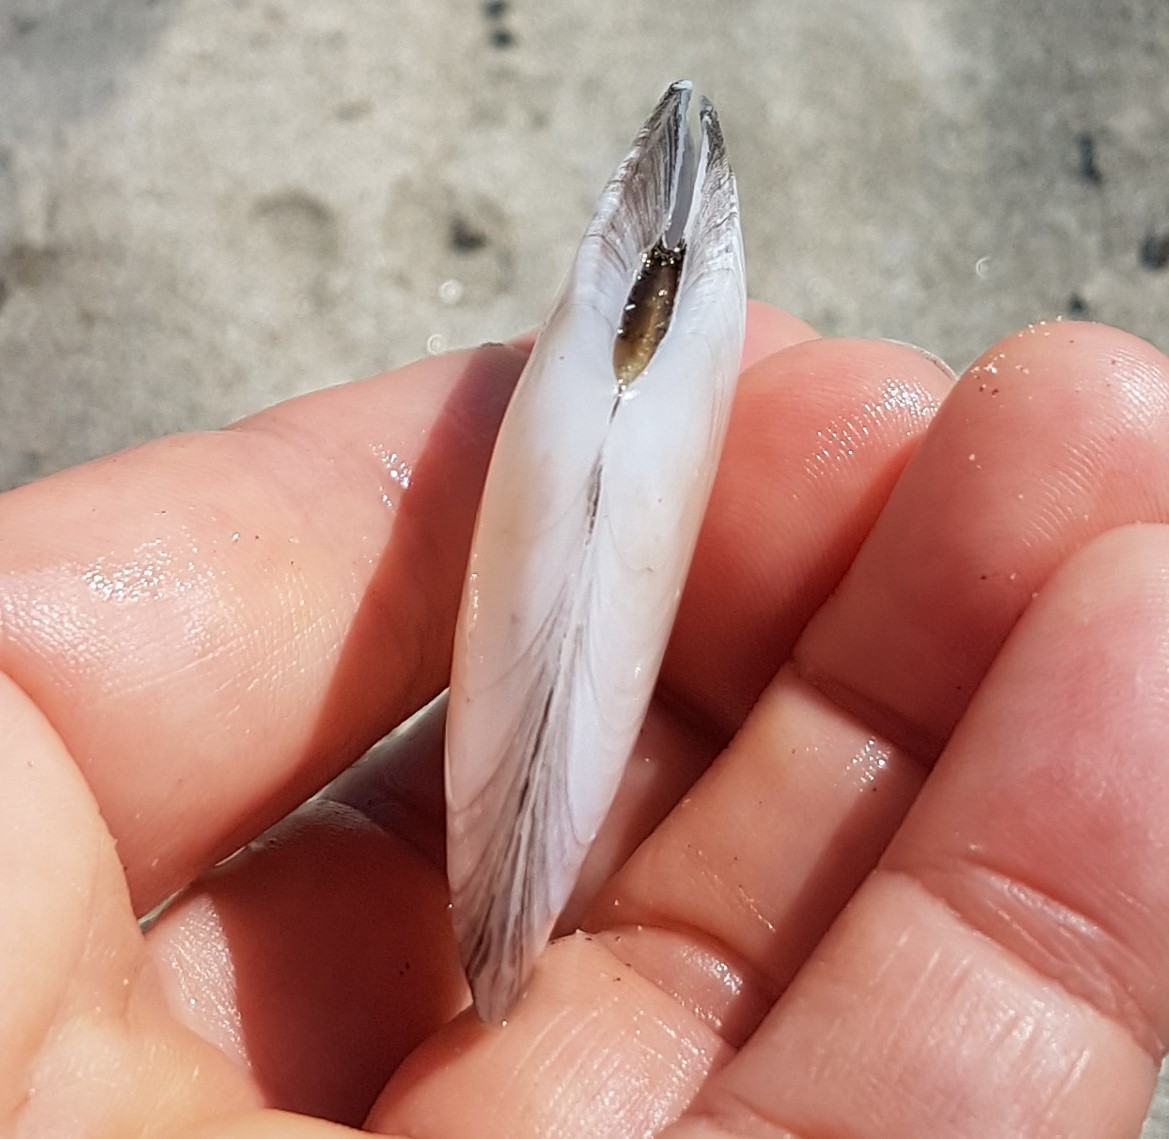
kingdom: Animalia
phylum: Mollusca
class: Bivalvia
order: Cardiida
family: Tellinidae
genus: Peronaea
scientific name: Peronaea planata
